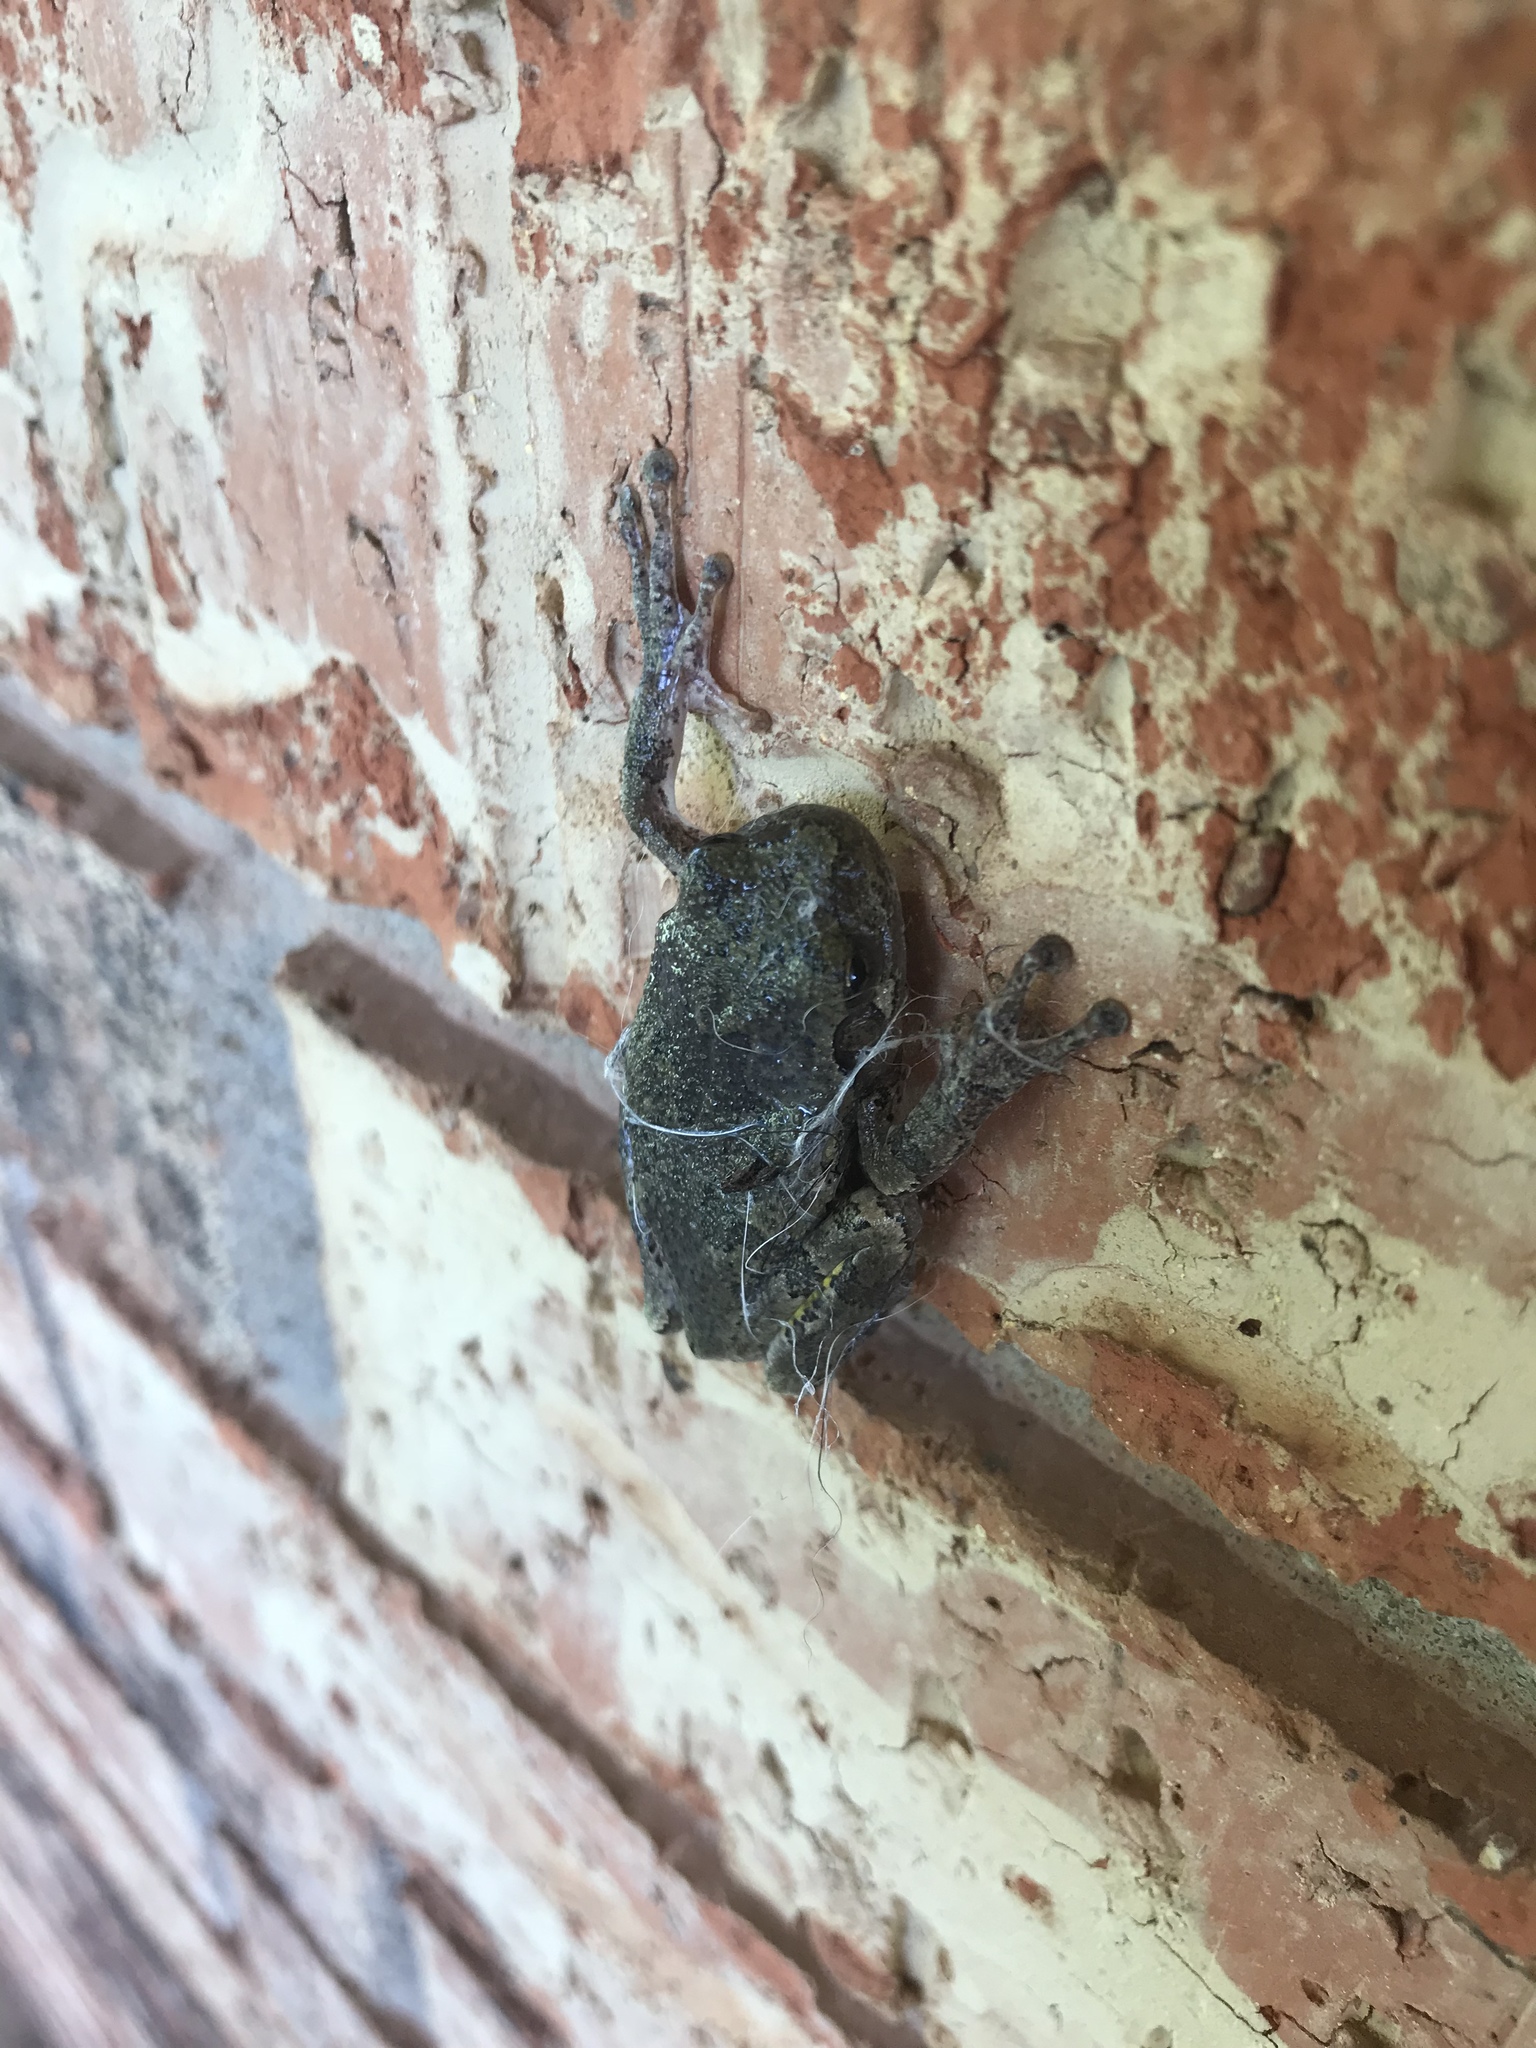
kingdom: Animalia
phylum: Chordata
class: Amphibia
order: Anura
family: Hylidae
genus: Hyla
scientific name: Hyla
